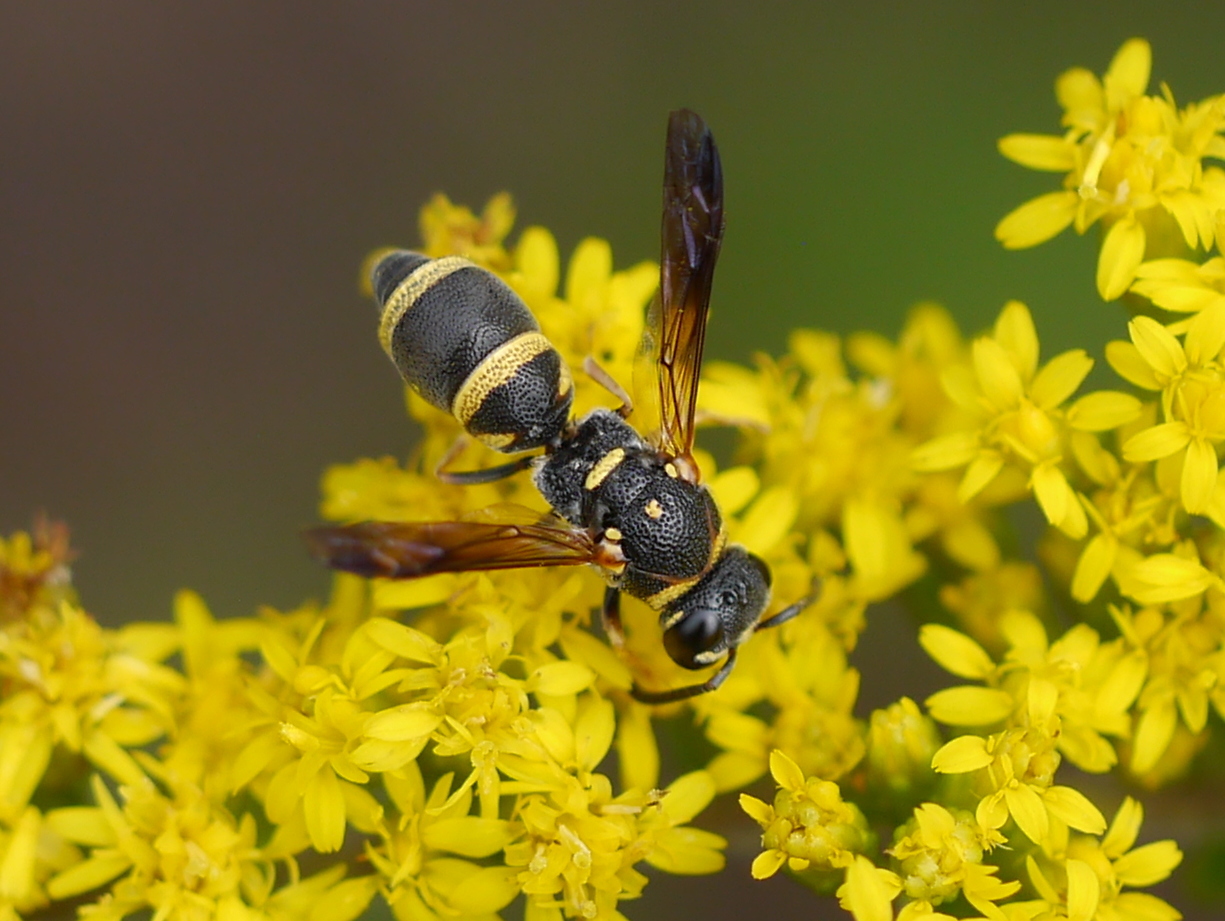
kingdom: Animalia
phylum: Arthropoda
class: Insecta
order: Hymenoptera
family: Eumenidae
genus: Parancistrocerus
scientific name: Parancistrocerus fulvipes
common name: Potter wasp
